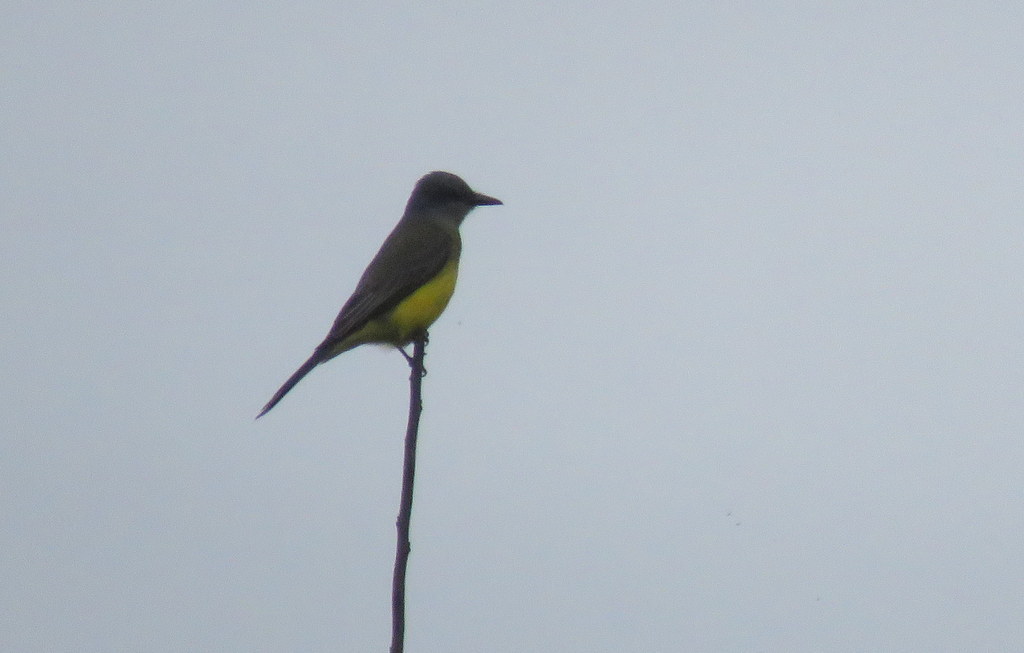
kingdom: Animalia
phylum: Chordata
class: Aves
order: Passeriformes
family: Tyrannidae
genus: Tyrannus
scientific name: Tyrannus melancholicus
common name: Tropical kingbird
